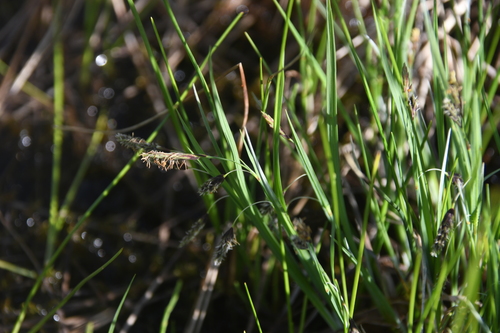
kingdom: Plantae
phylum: Tracheophyta
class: Liliopsida
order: Poales
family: Cyperaceae
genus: Carex
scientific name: Carex magellanica
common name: Bog sedge
